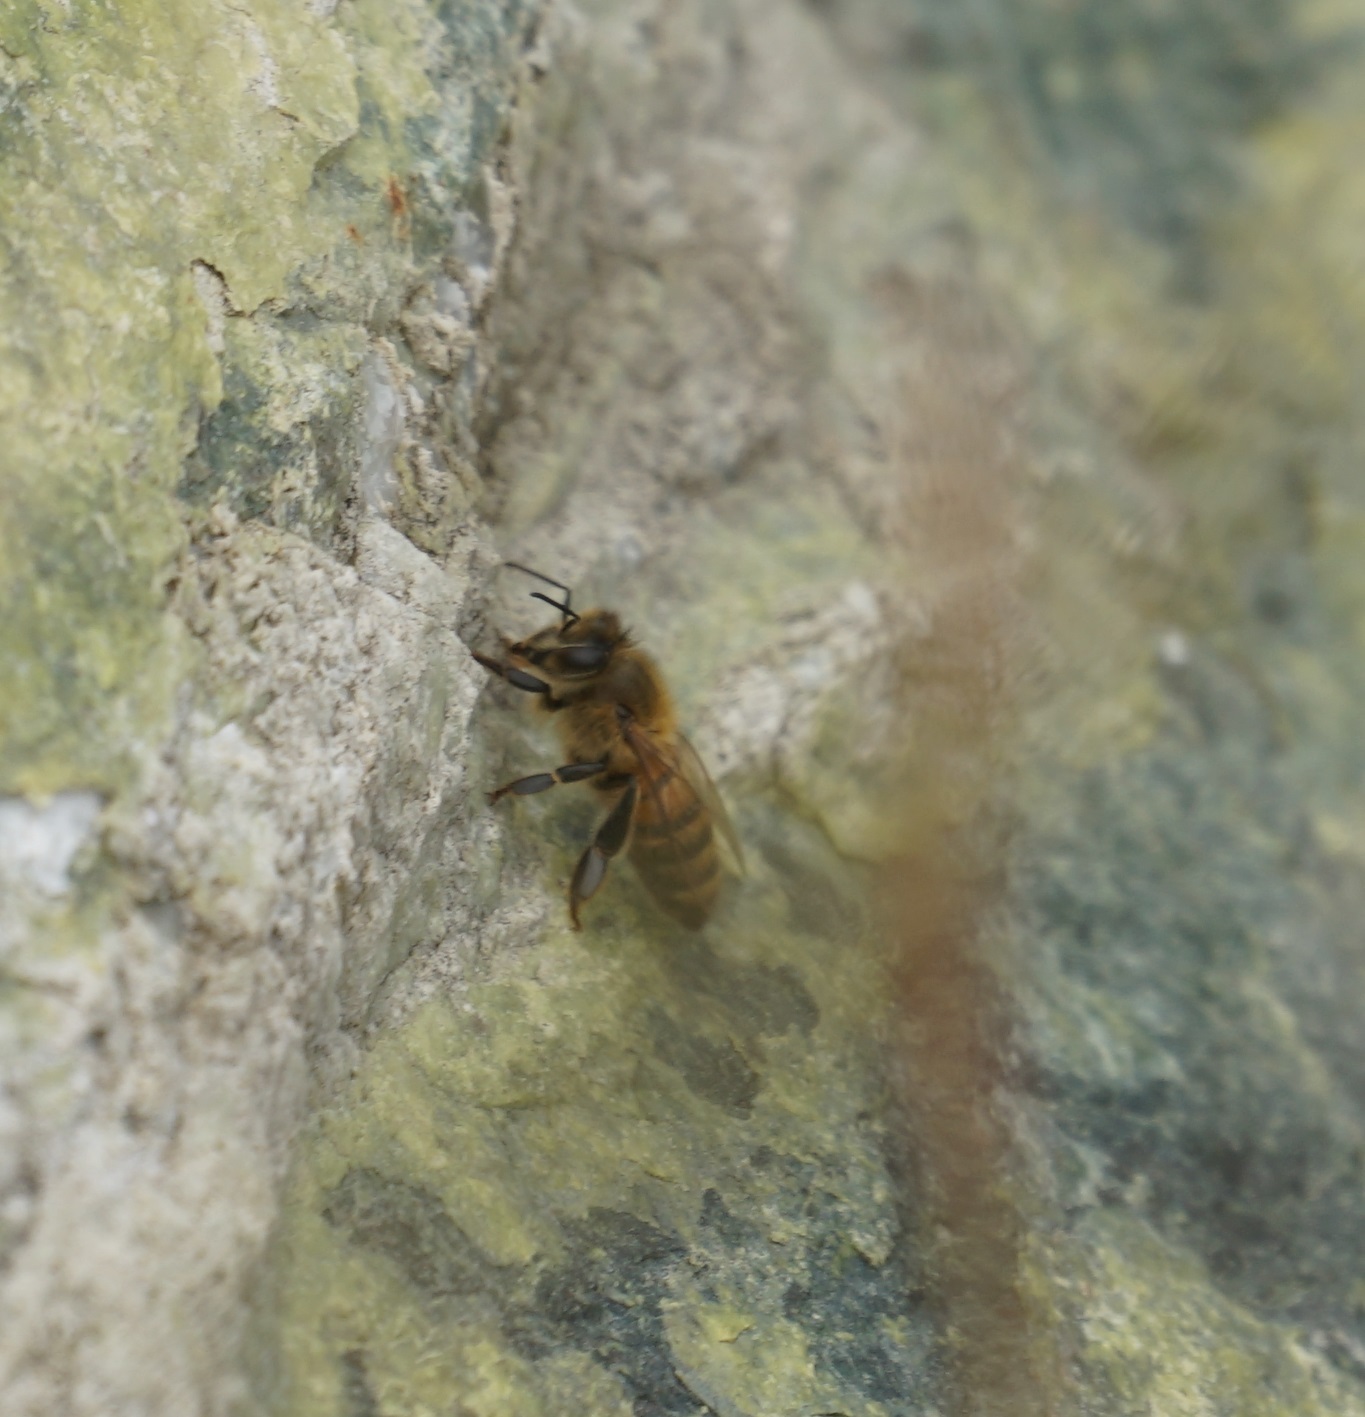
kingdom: Animalia
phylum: Arthropoda
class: Insecta
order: Hymenoptera
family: Apidae
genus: Apis
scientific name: Apis mellifera
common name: Honey bee
